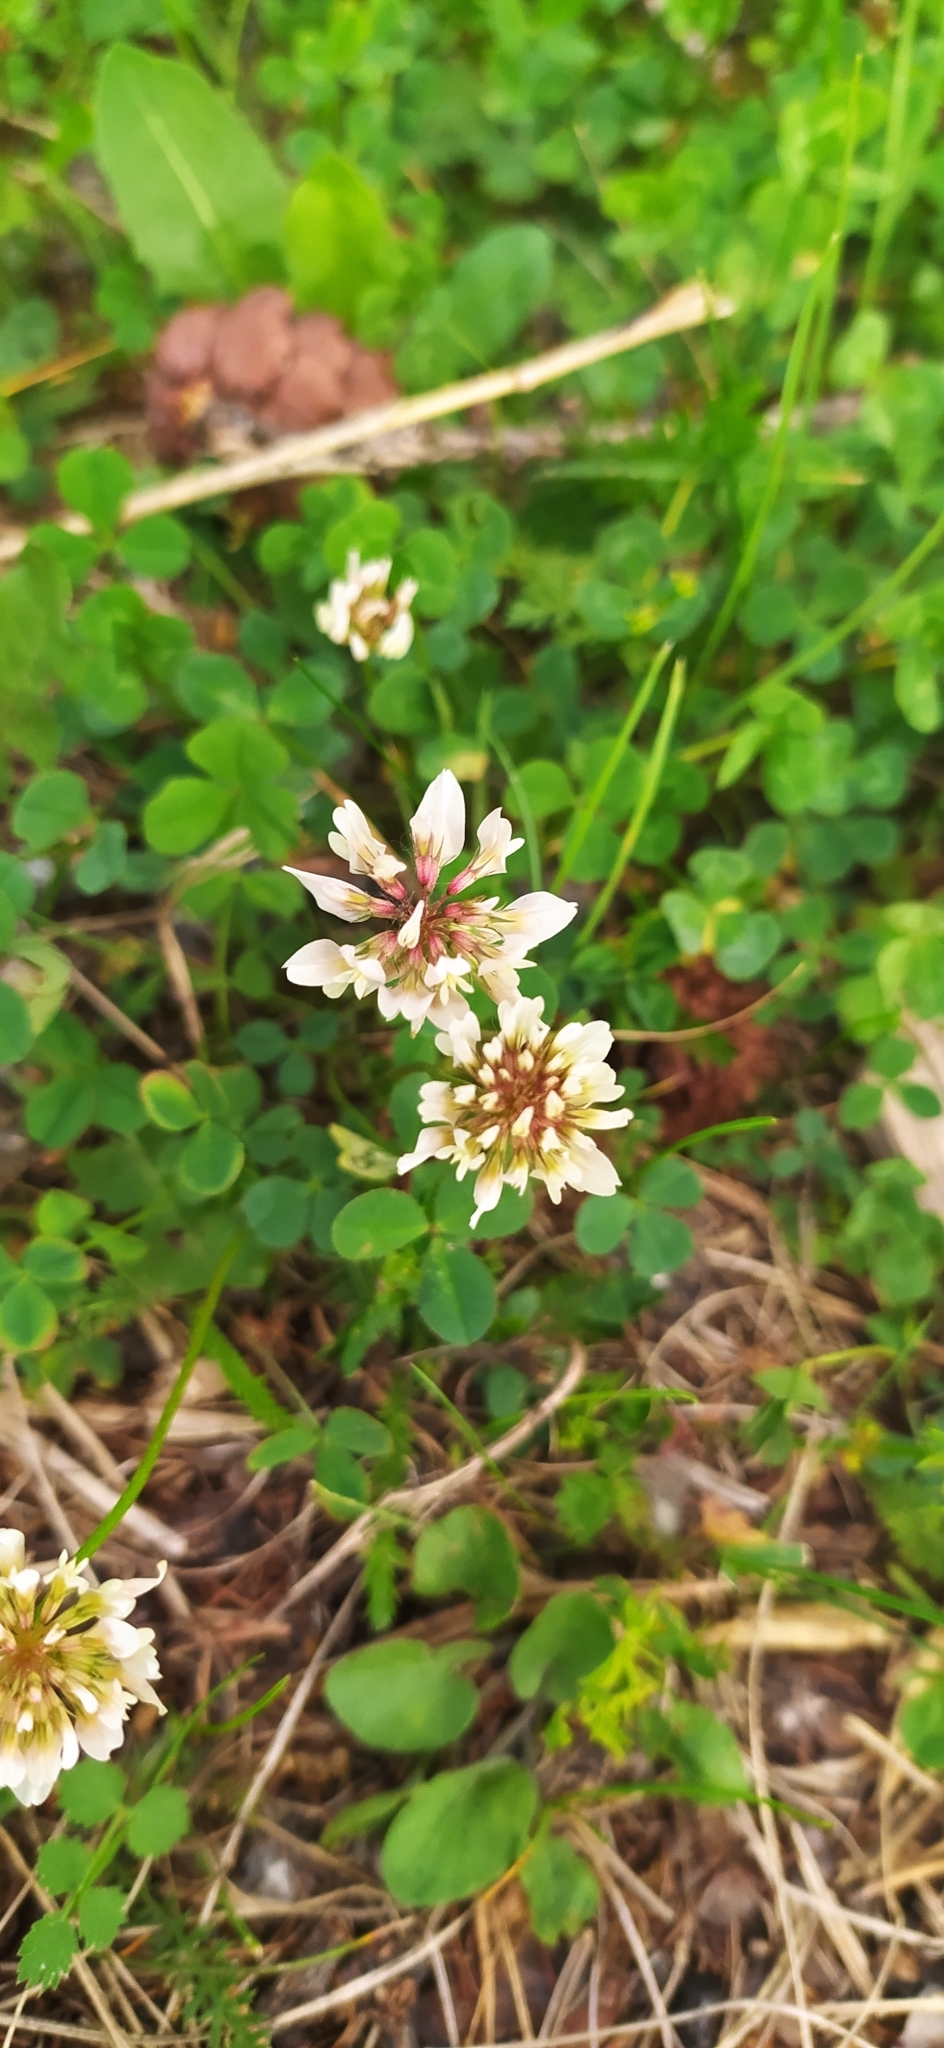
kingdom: Plantae
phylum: Tracheophyta
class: Magnoliopsida
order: Fabales
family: Fabaceae
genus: Trifolium
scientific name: Trifolium repens
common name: White clover
